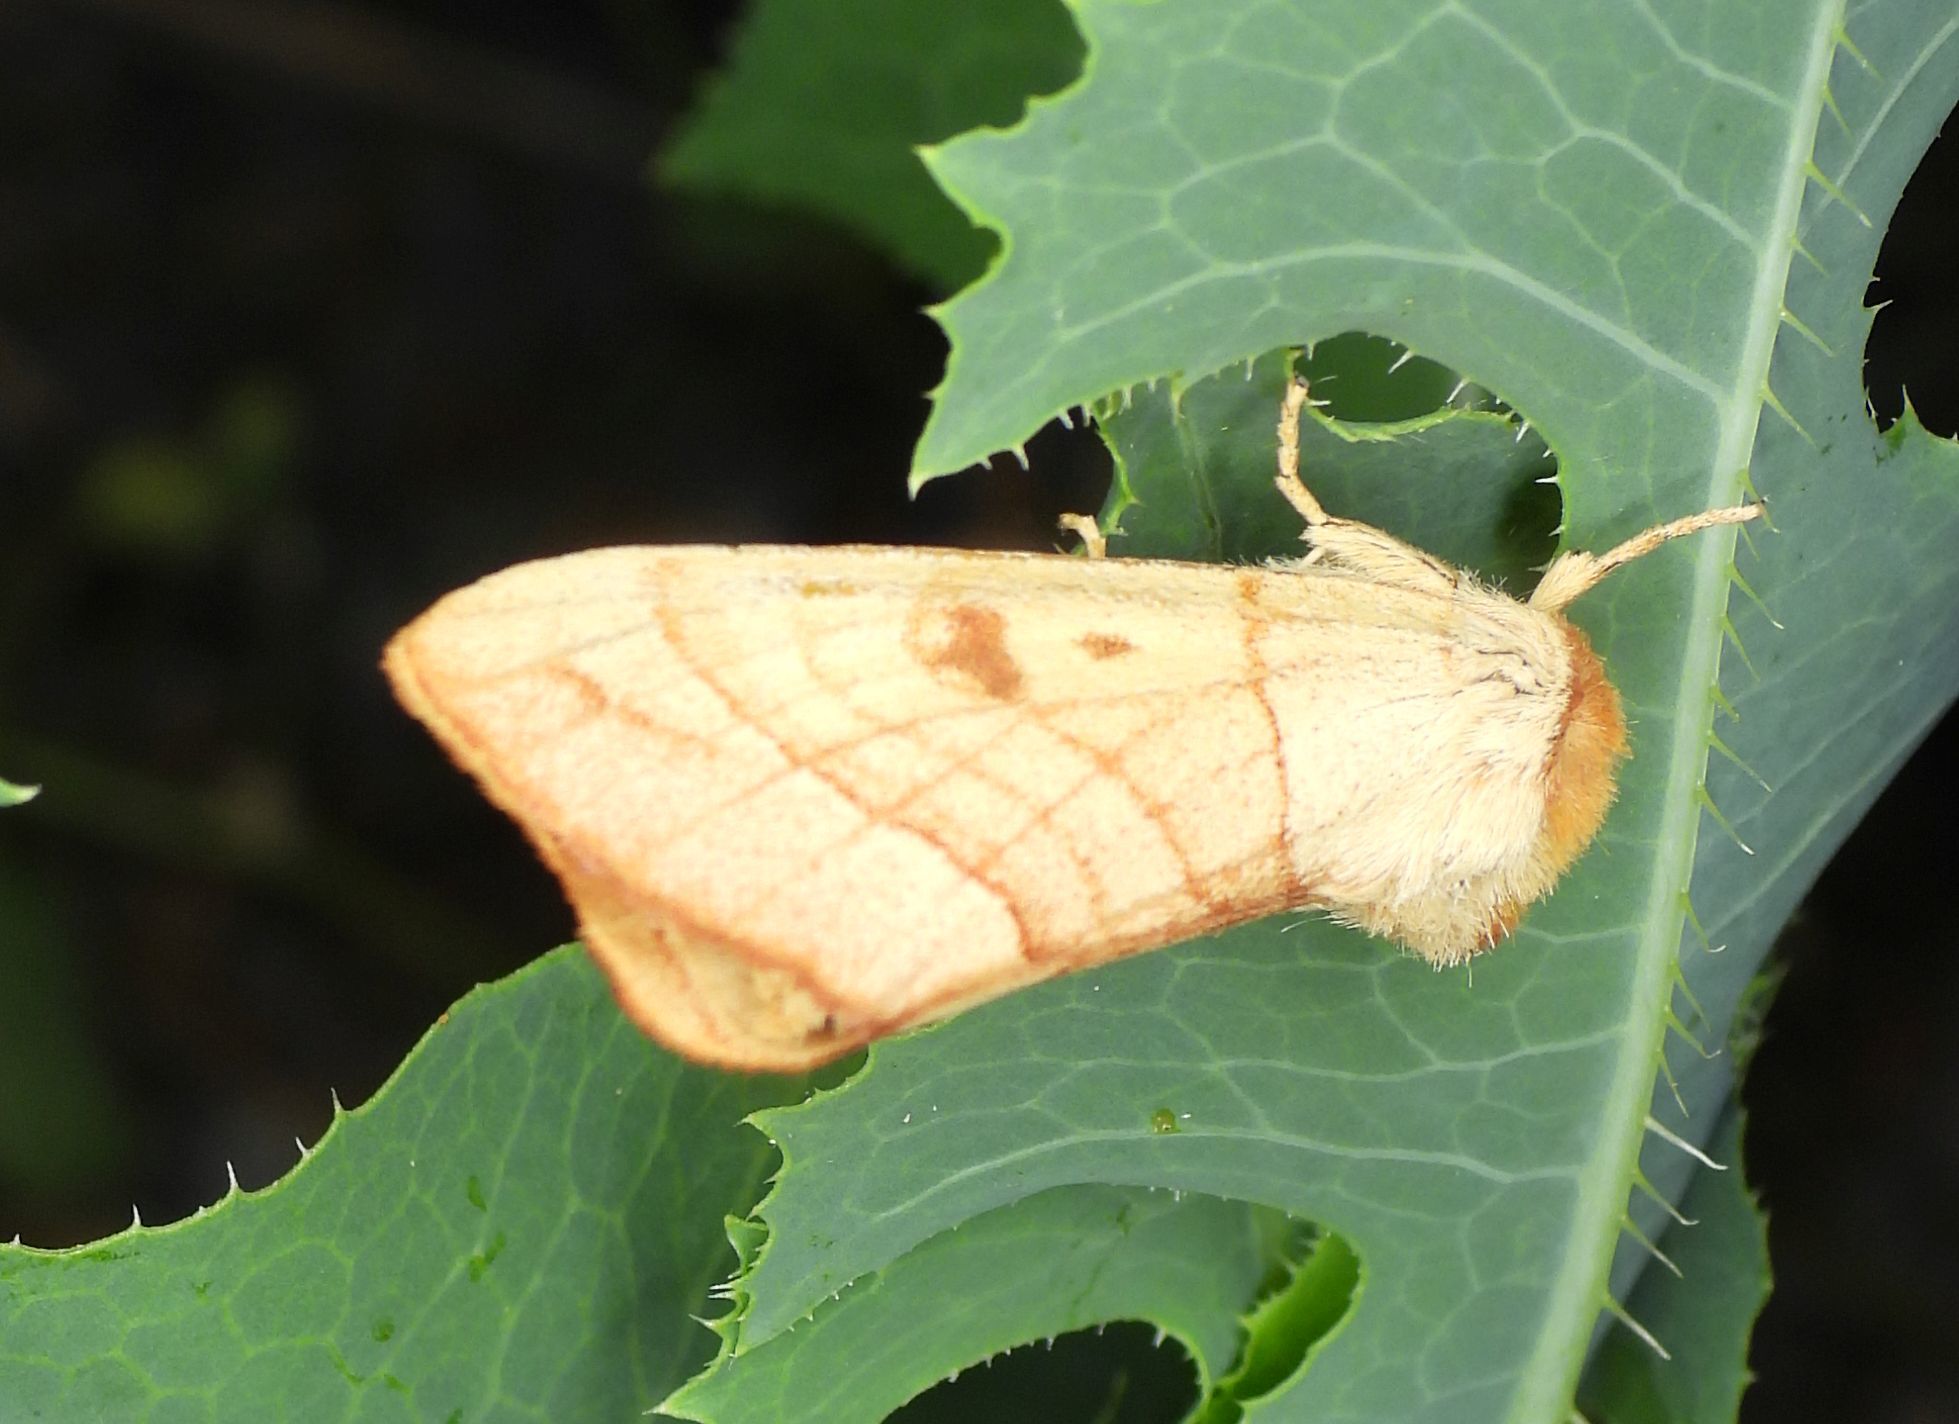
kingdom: Animalia
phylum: Arthropoda
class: Insecta
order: Lepidoptera
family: Notodontidae
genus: Datana
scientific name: Datana perspicua
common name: Spotted datana
